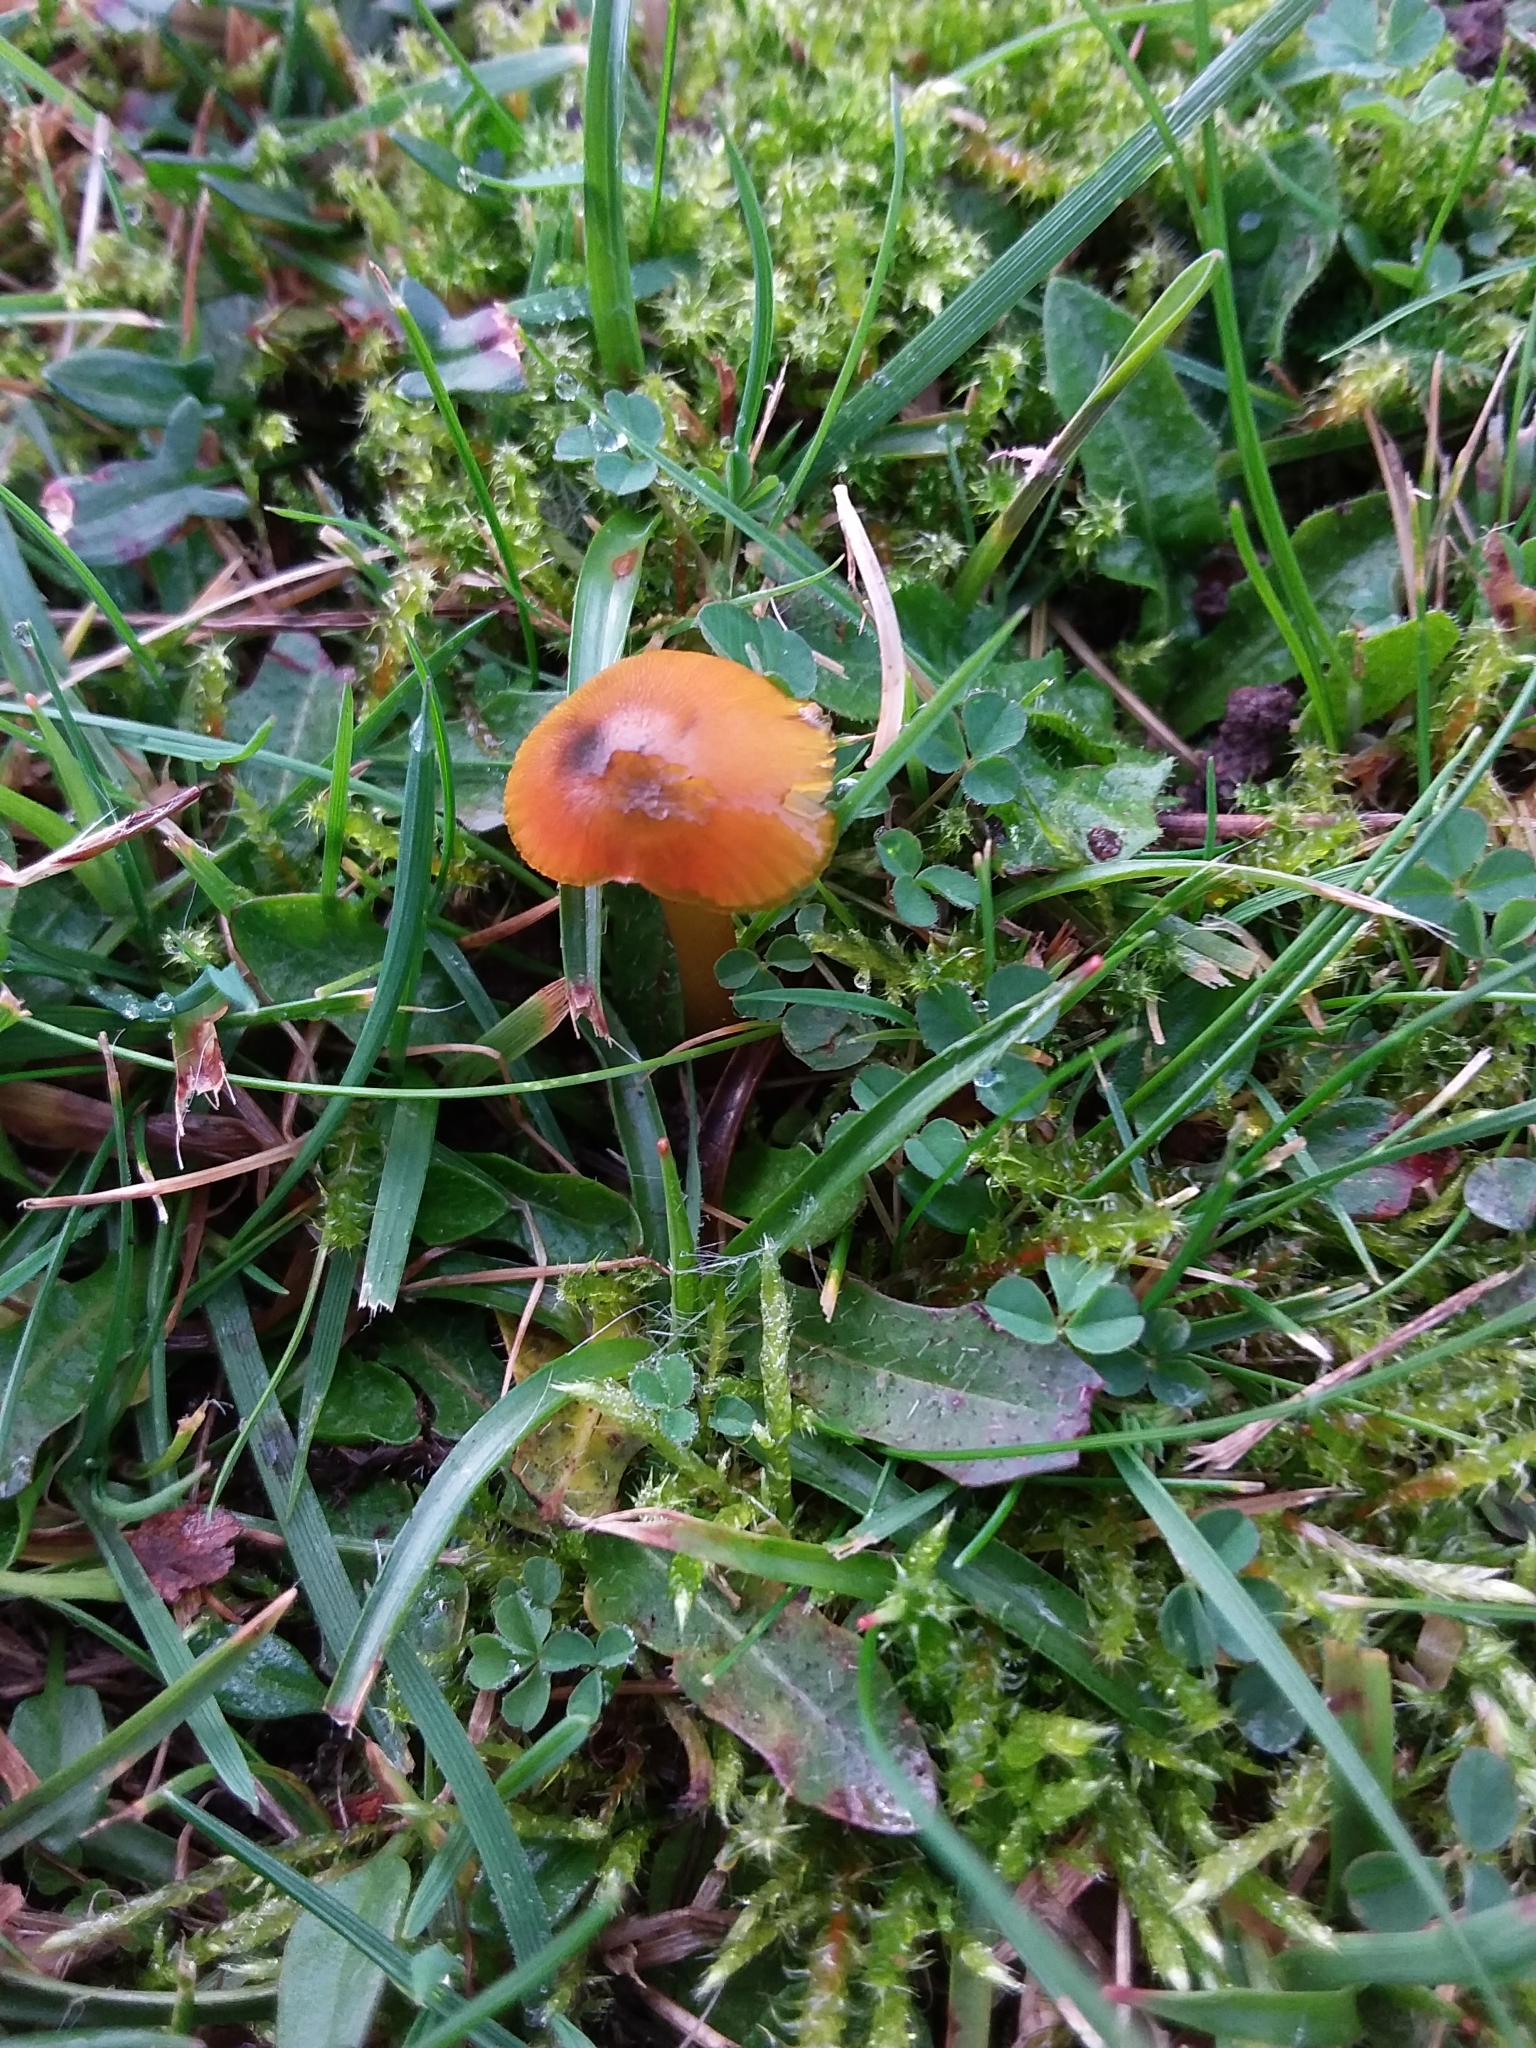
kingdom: Fungi
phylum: Basidiomycota
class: Agaricomycetes
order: Agaricales
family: Hygrophoraceae
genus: Hygrocybe
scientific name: Hygrocybe conica
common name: Blackening wax-cap
